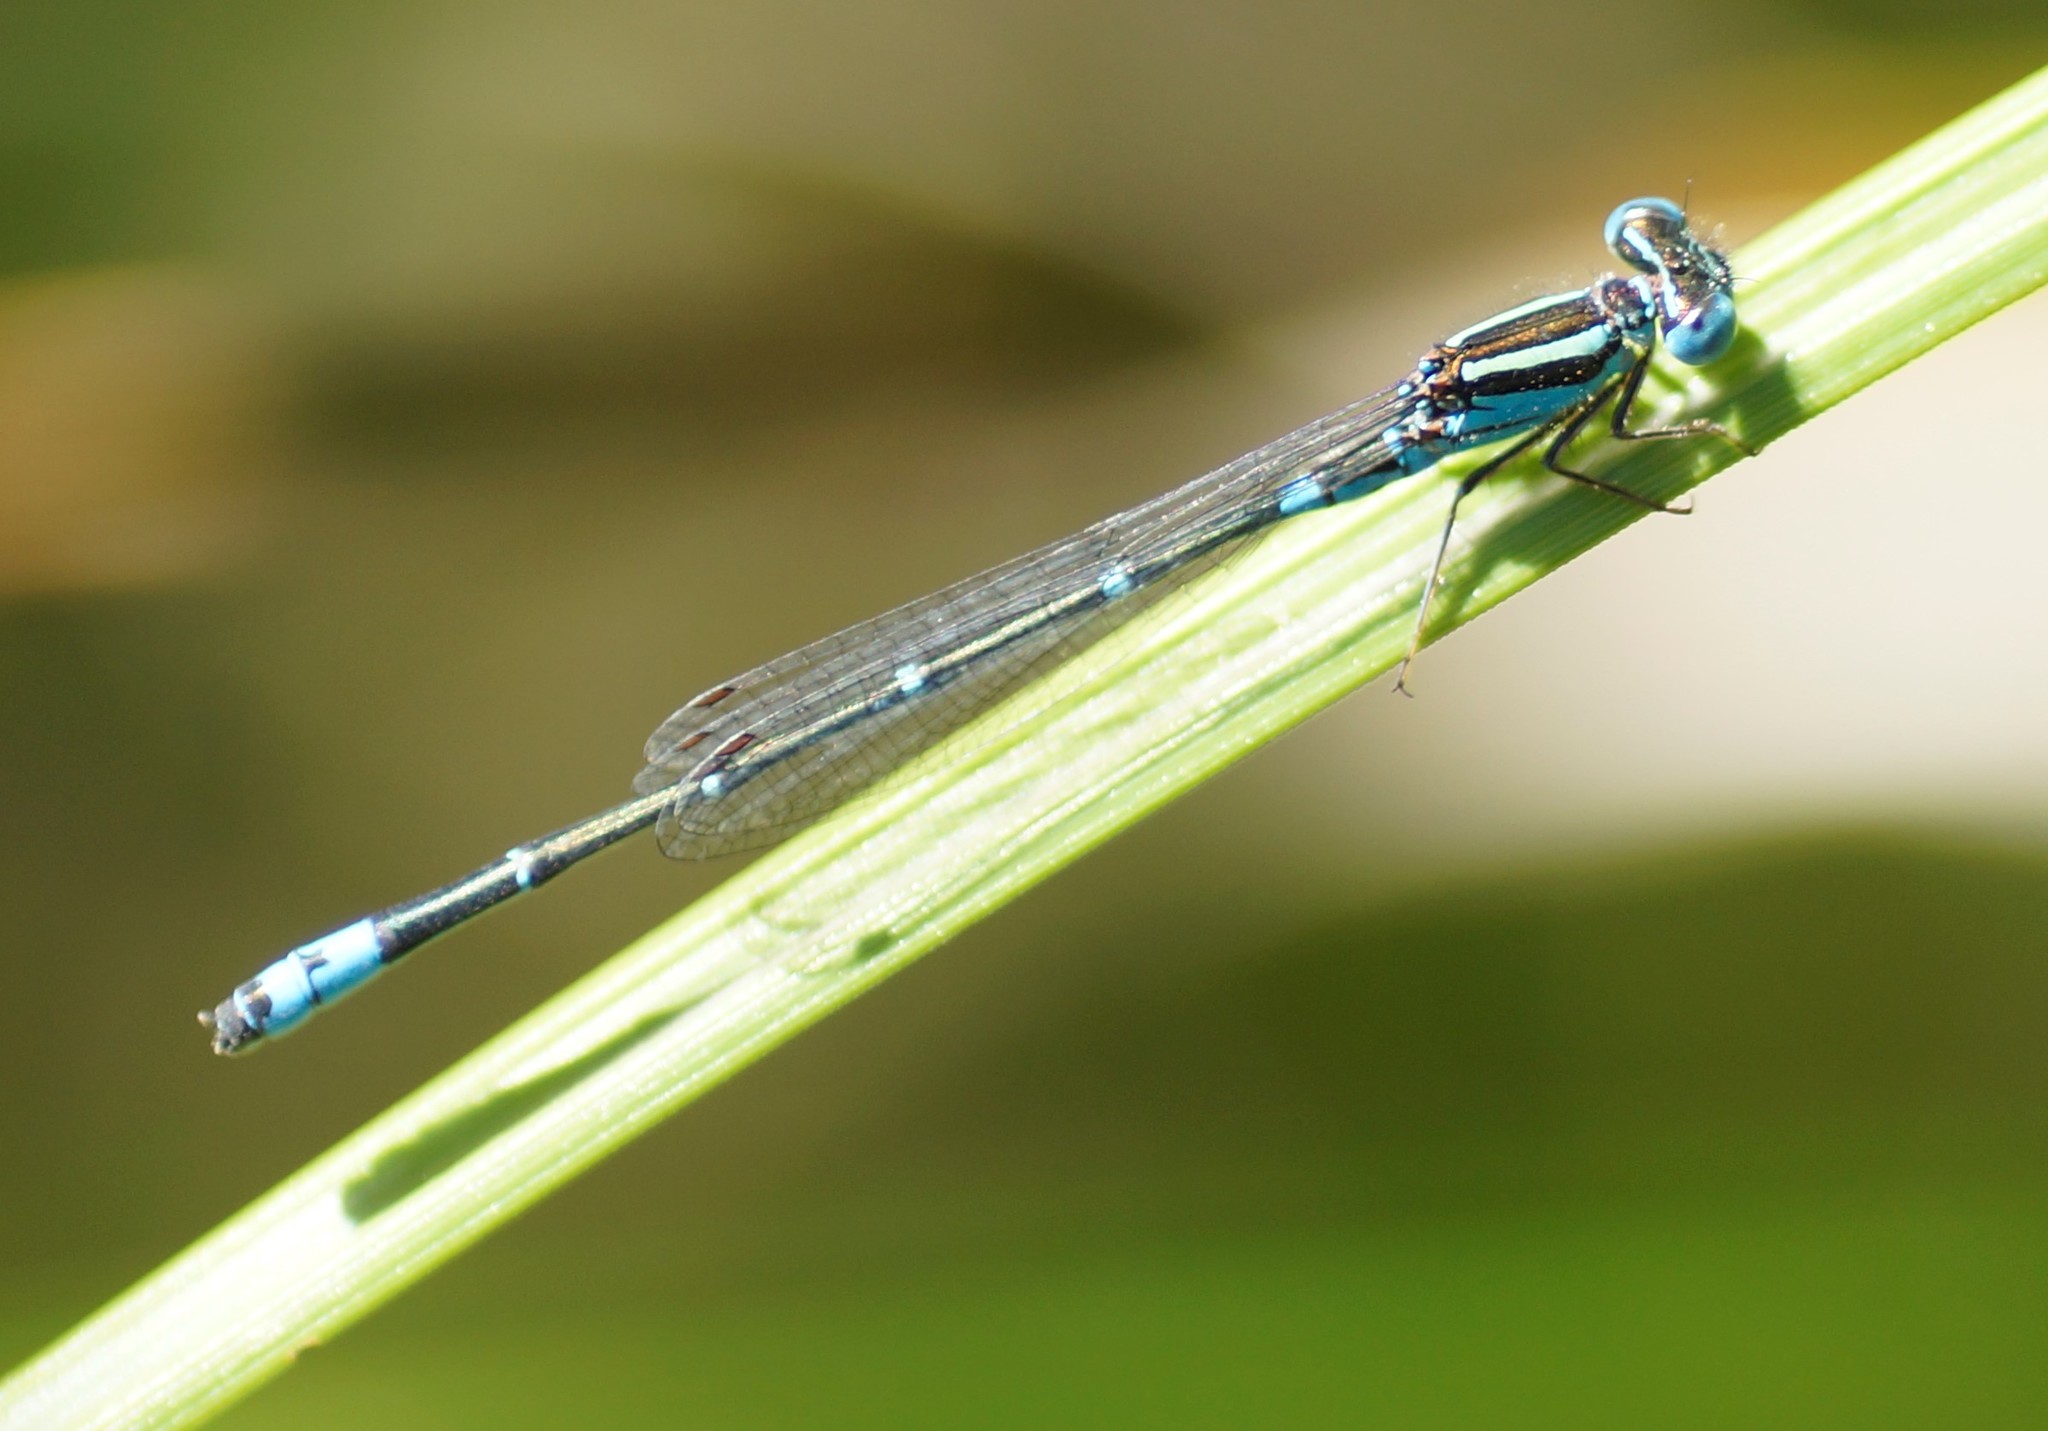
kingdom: Animalia
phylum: Arthropoda
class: Insecta
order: Odonata
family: Coenagrionidae
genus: Austroagrion
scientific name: Austroagrion watsoni
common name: Eastern billabongfly
